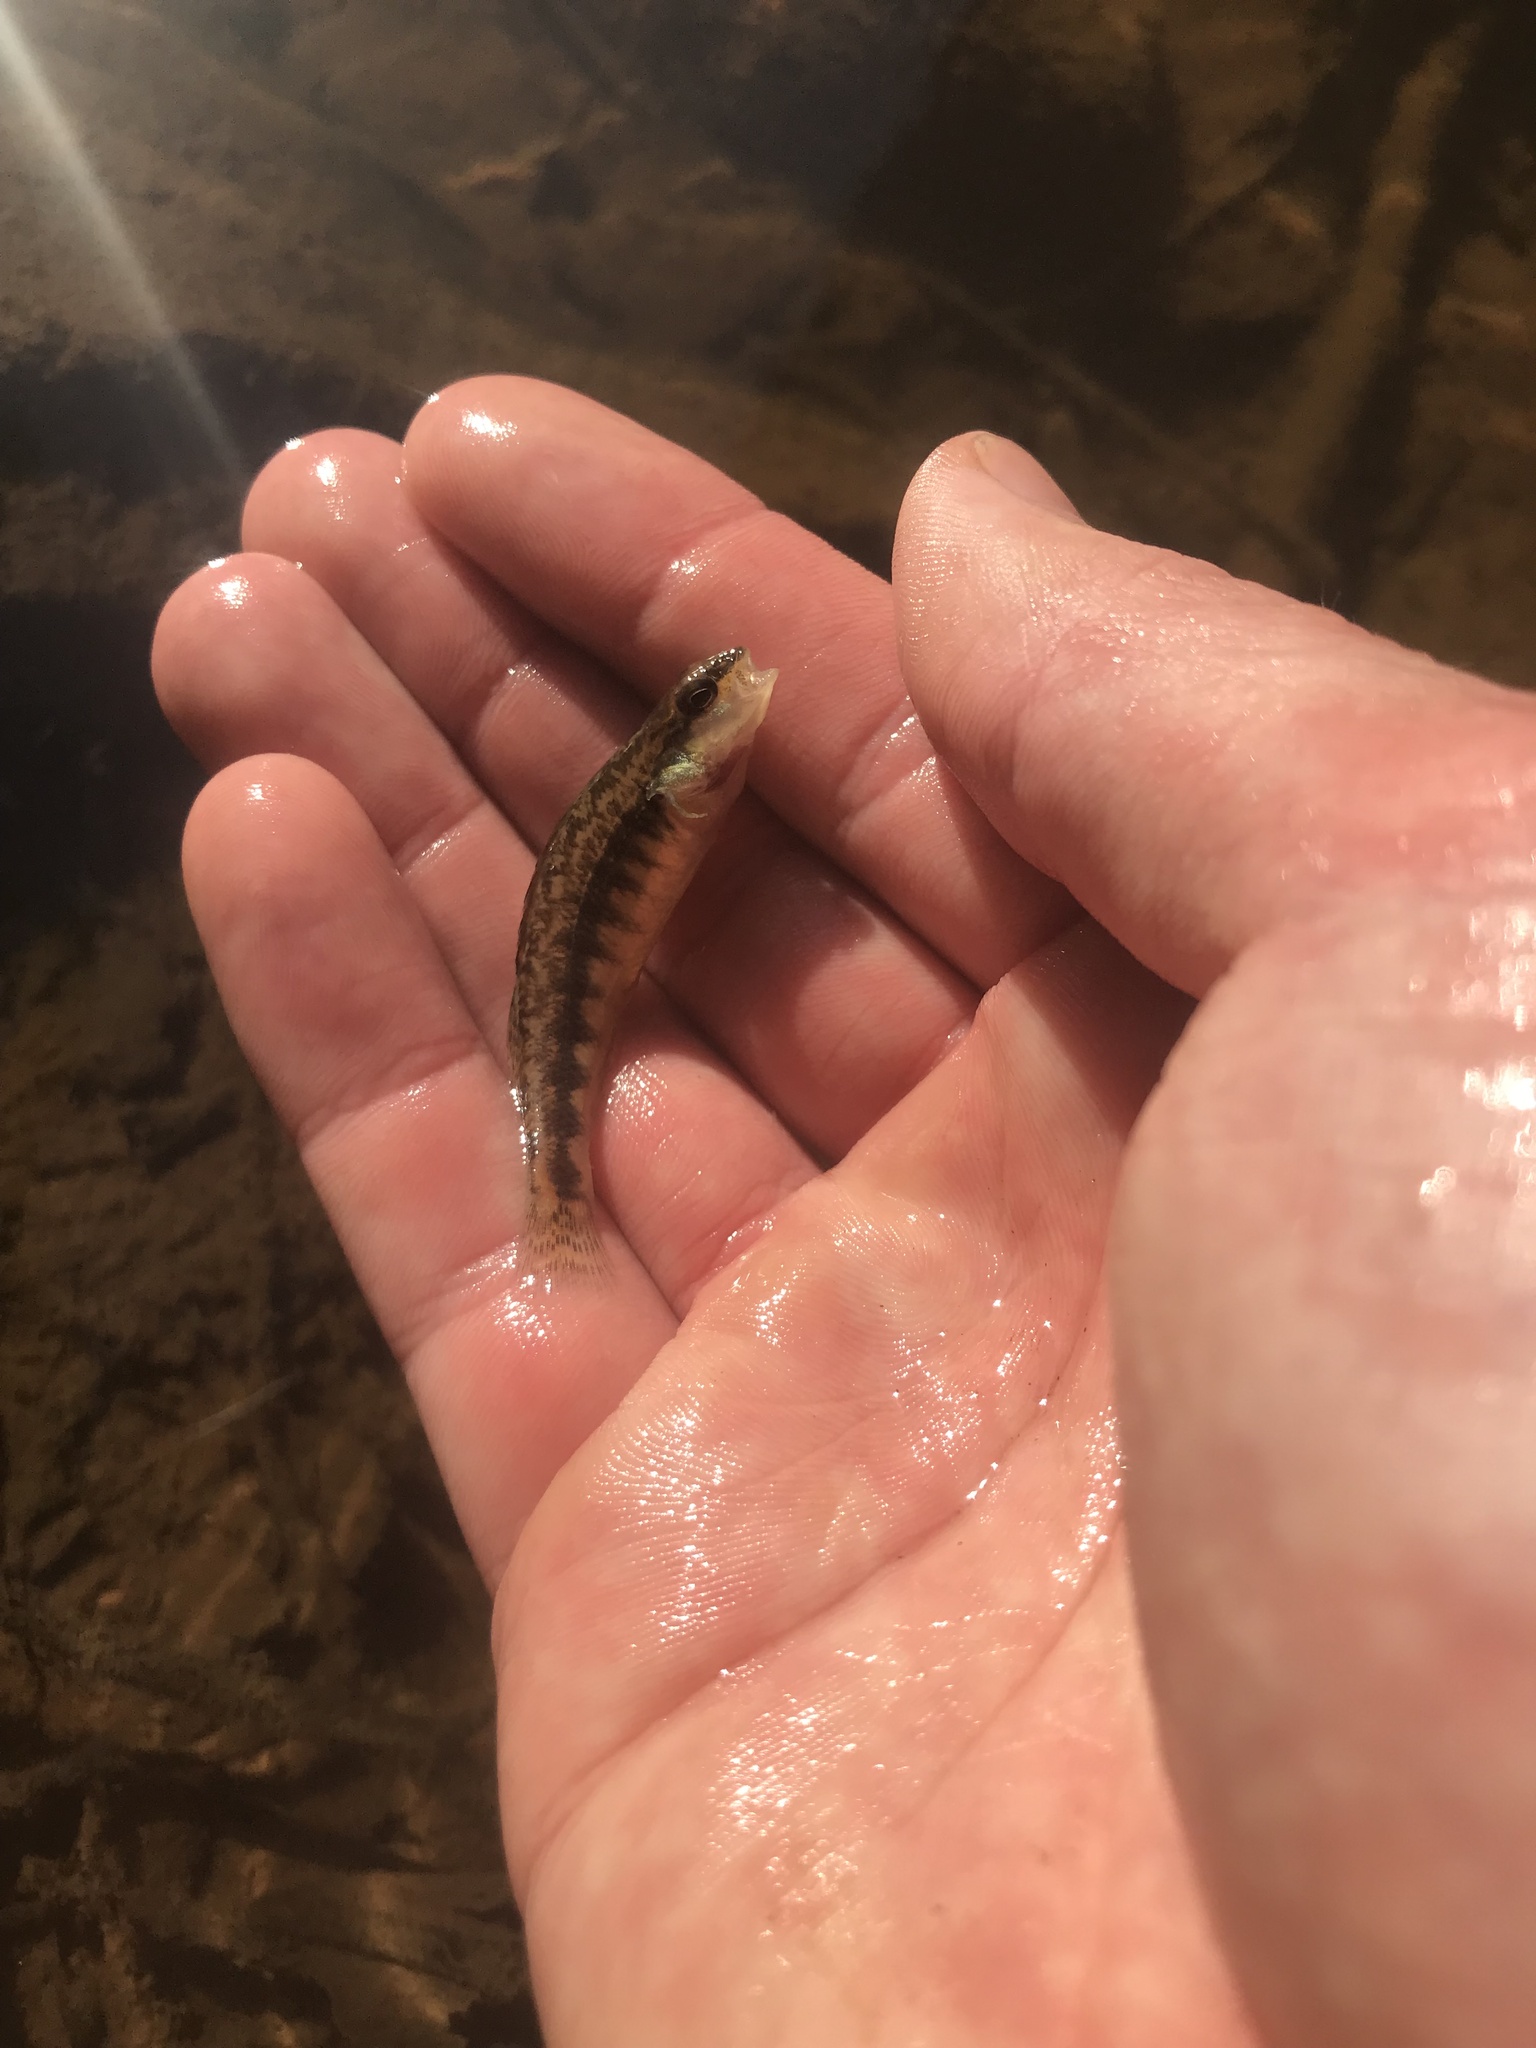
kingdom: Animalia
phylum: Chordata
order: Perciformes
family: Percidae
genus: Percina
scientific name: Percina roanoka
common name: Roanoke darter
